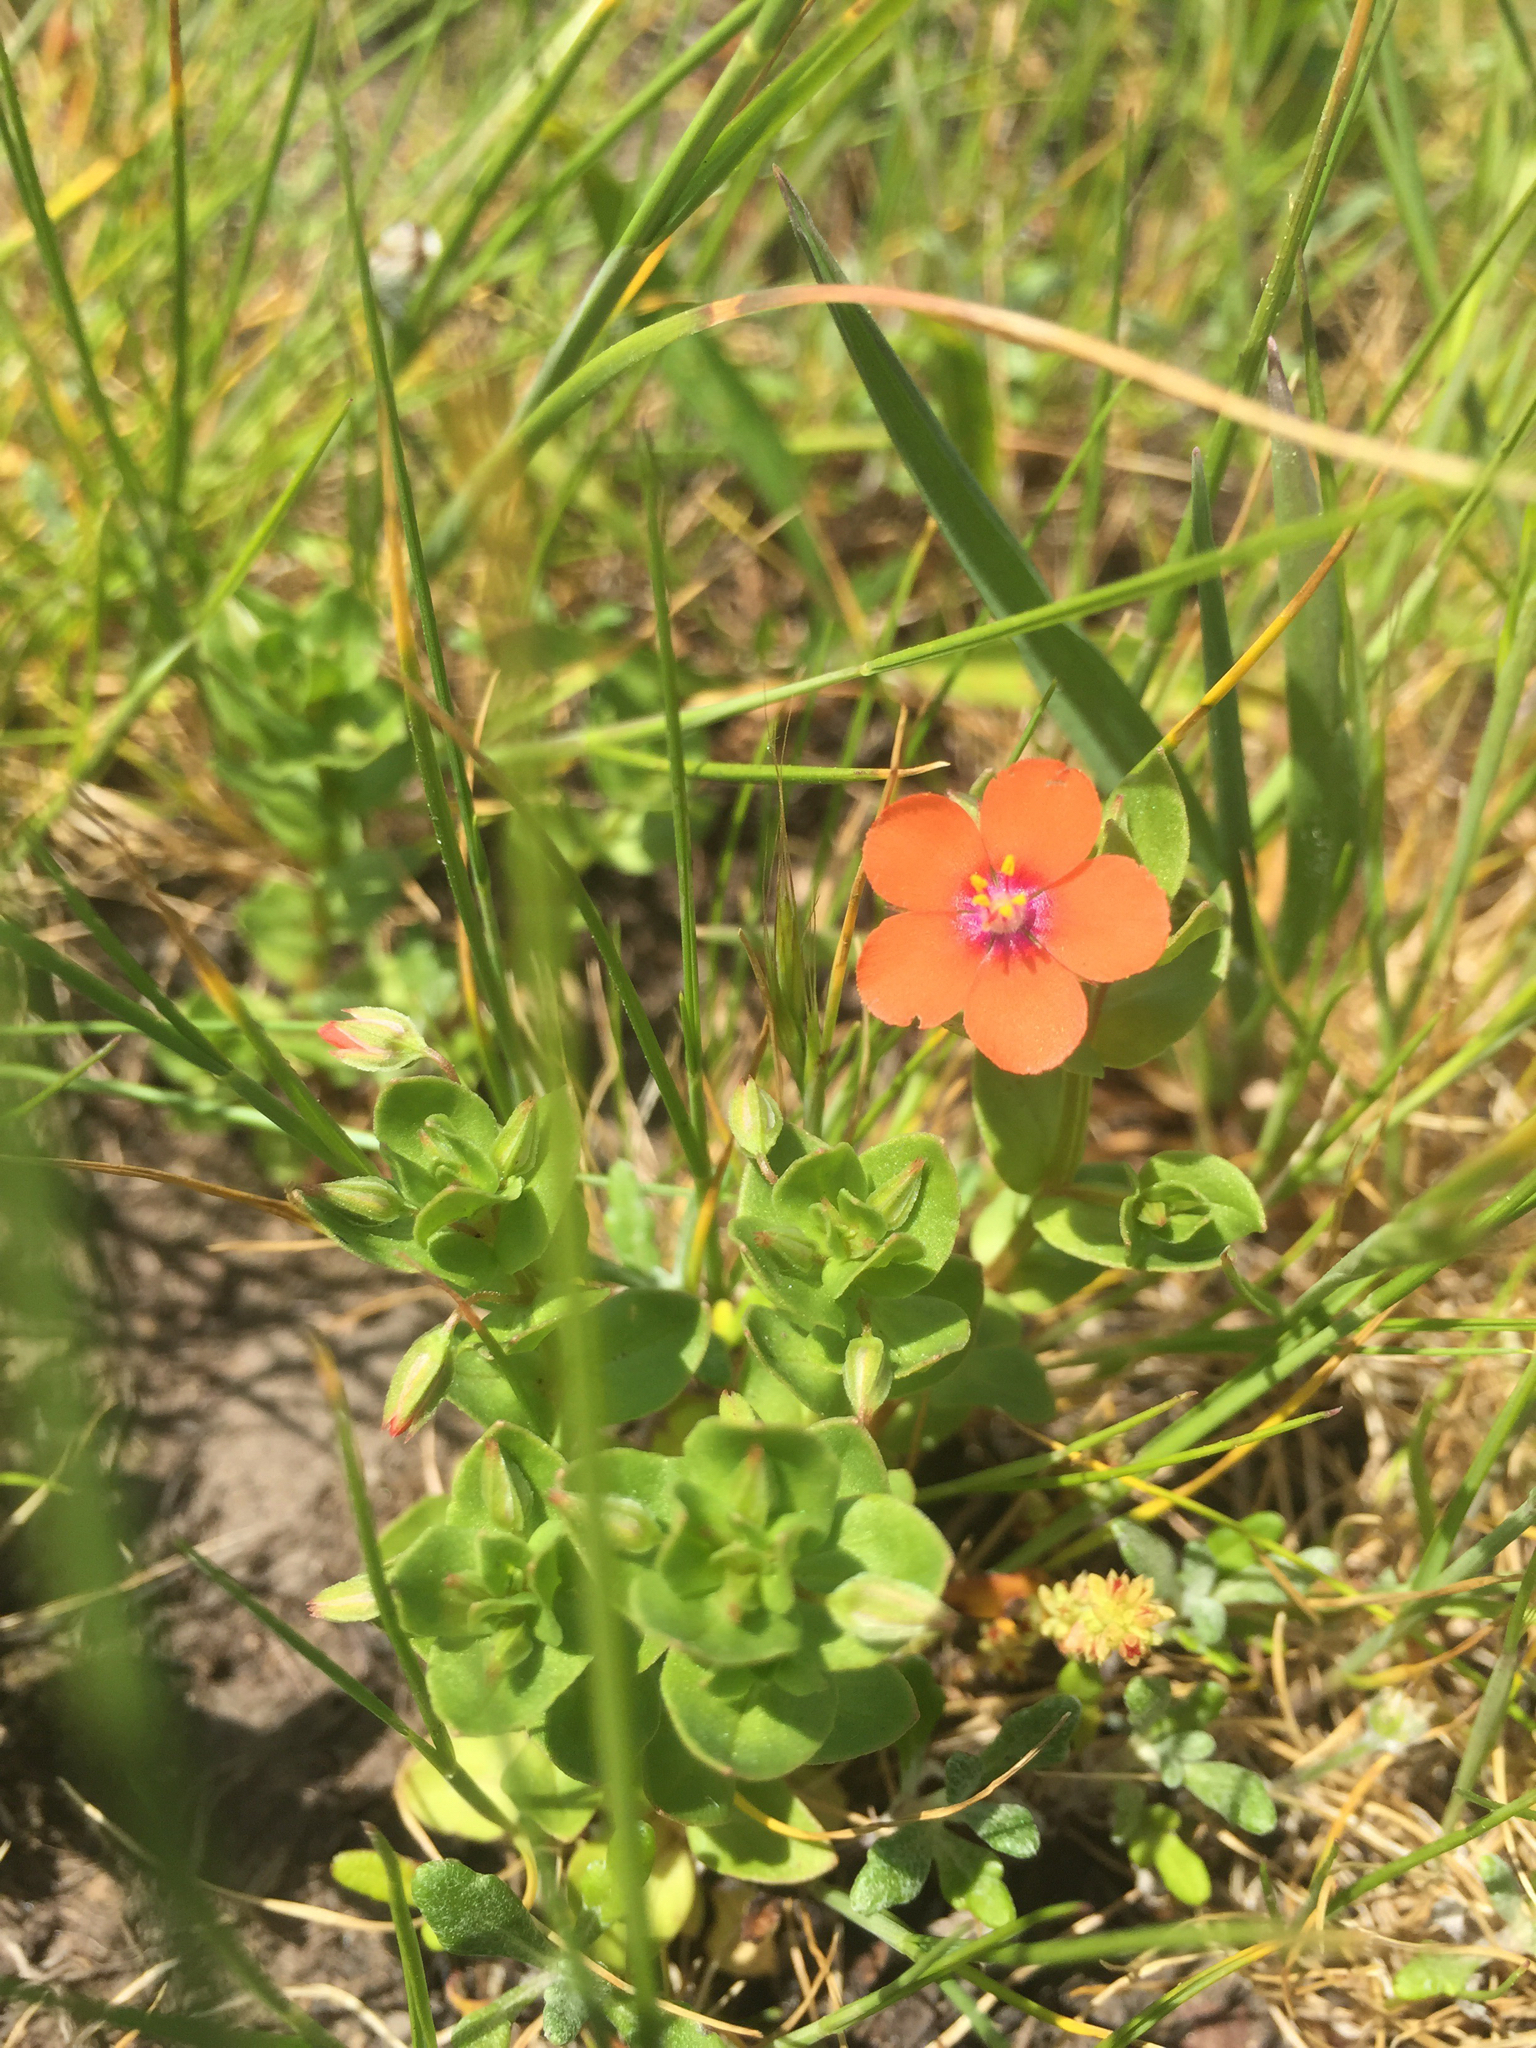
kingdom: Plantae
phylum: Tracheophyta
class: Magnoliopsida
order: Ericales
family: Primulaceae
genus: Lysimachia
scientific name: Lysimachia arvensis
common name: Scarlet pimpernel
